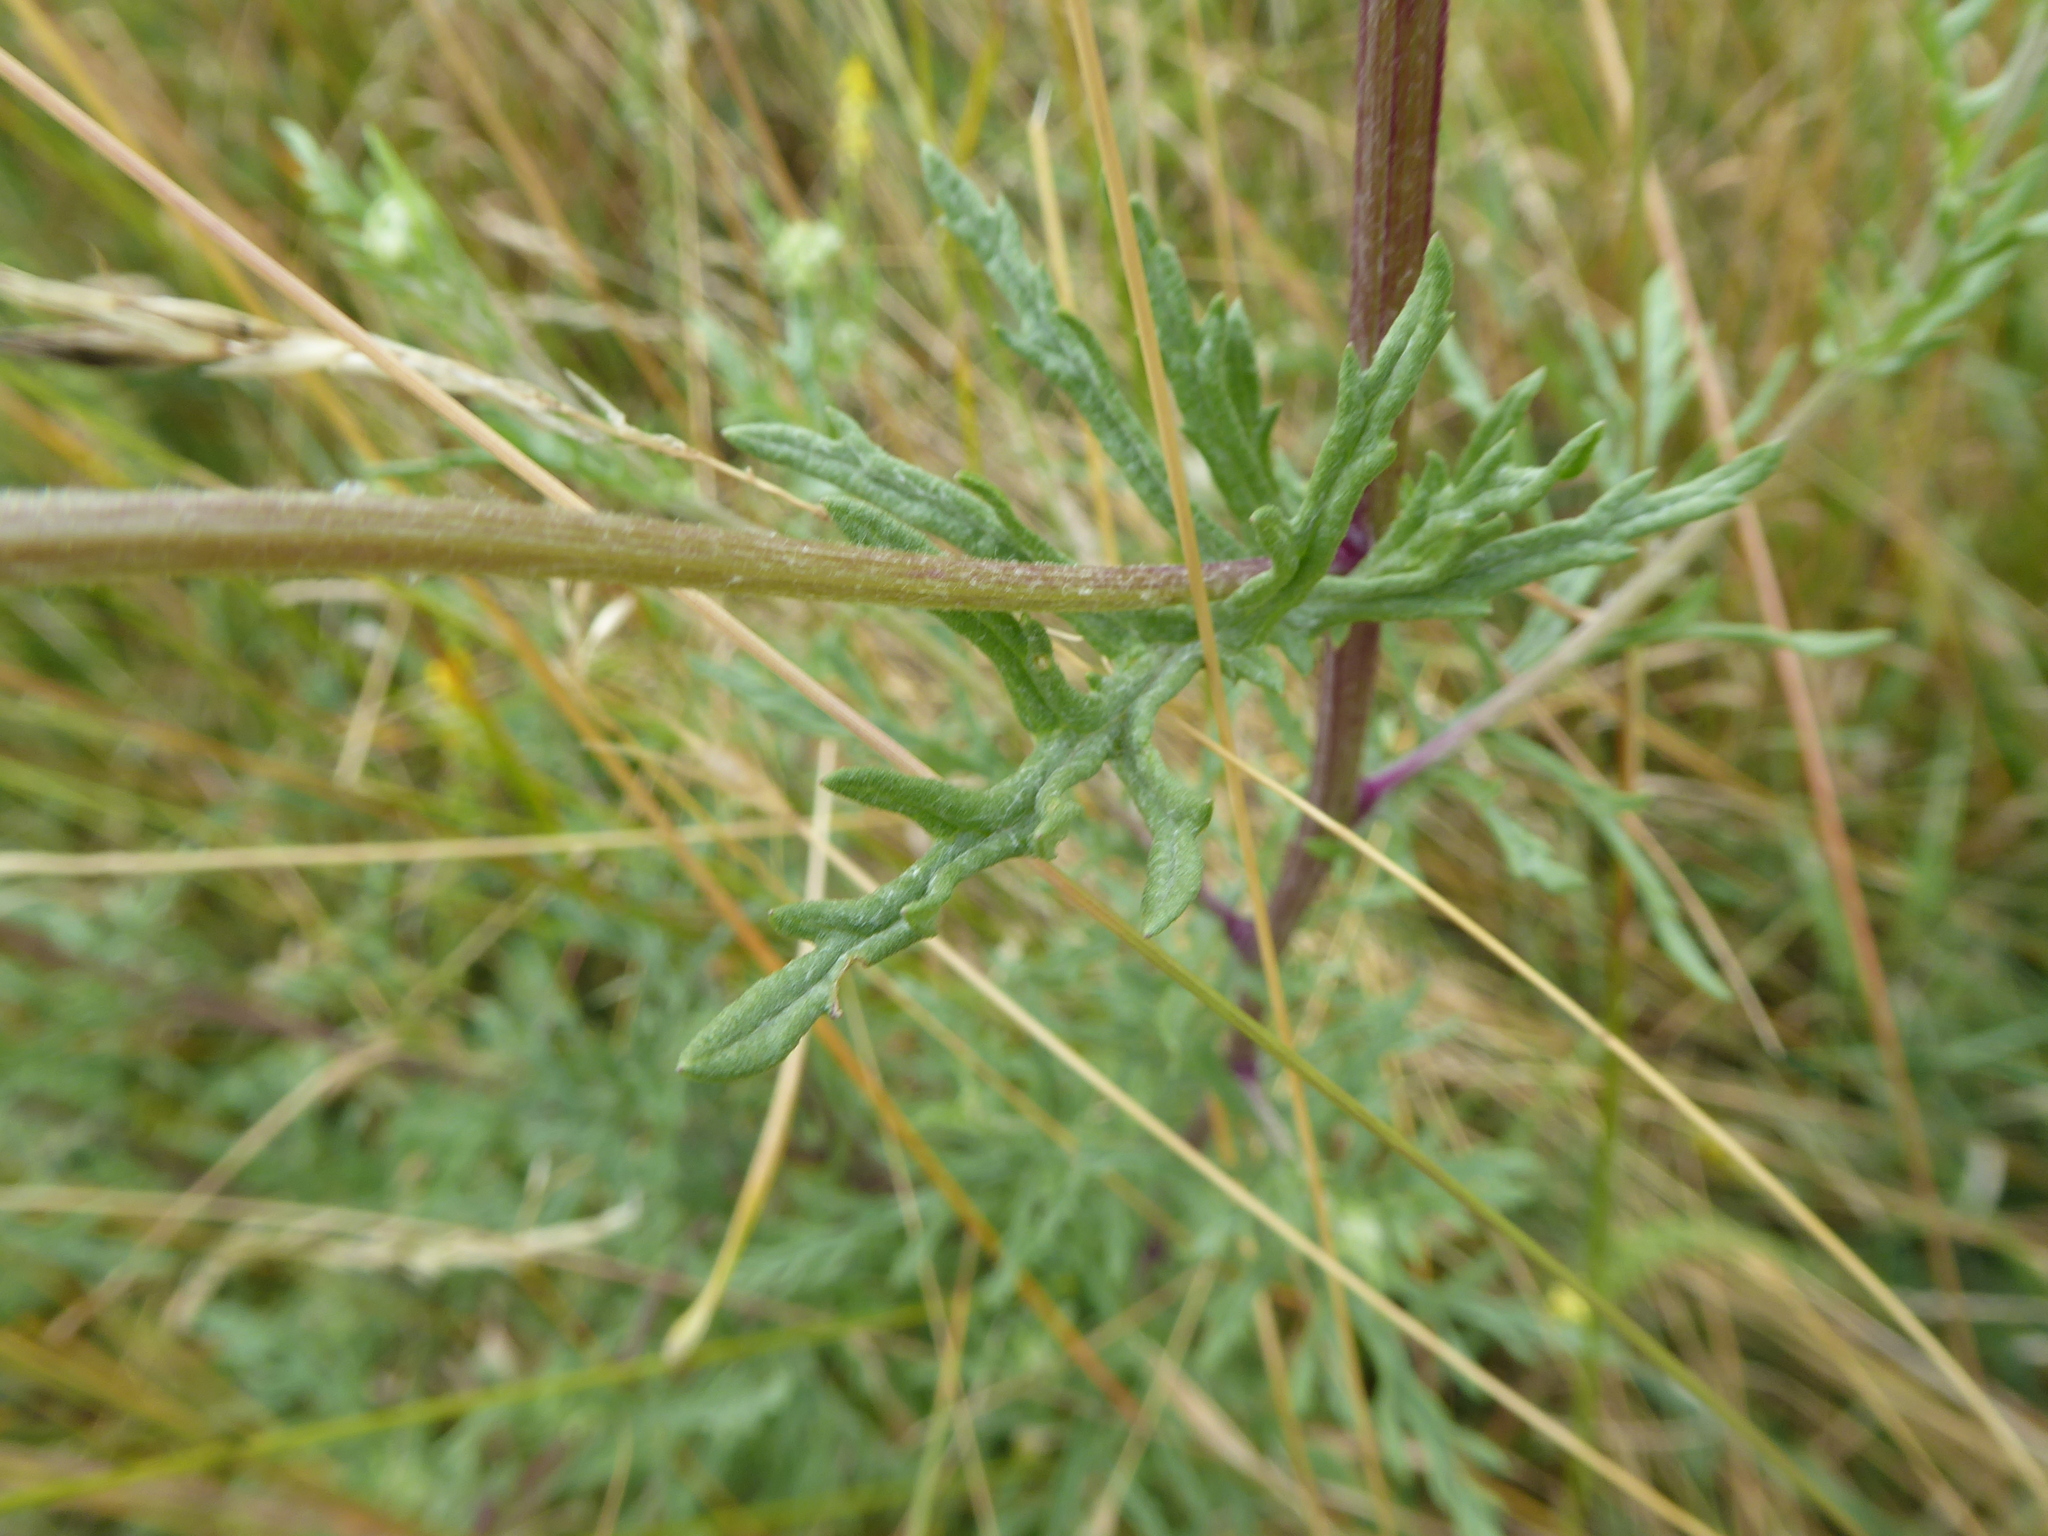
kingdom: Plantae
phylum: Tracheophyta
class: Magnoliopsida
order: Asterales
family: Asteraceae
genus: Jacobaea
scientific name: Jacobaea erucifolia
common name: Hoary ragwort
